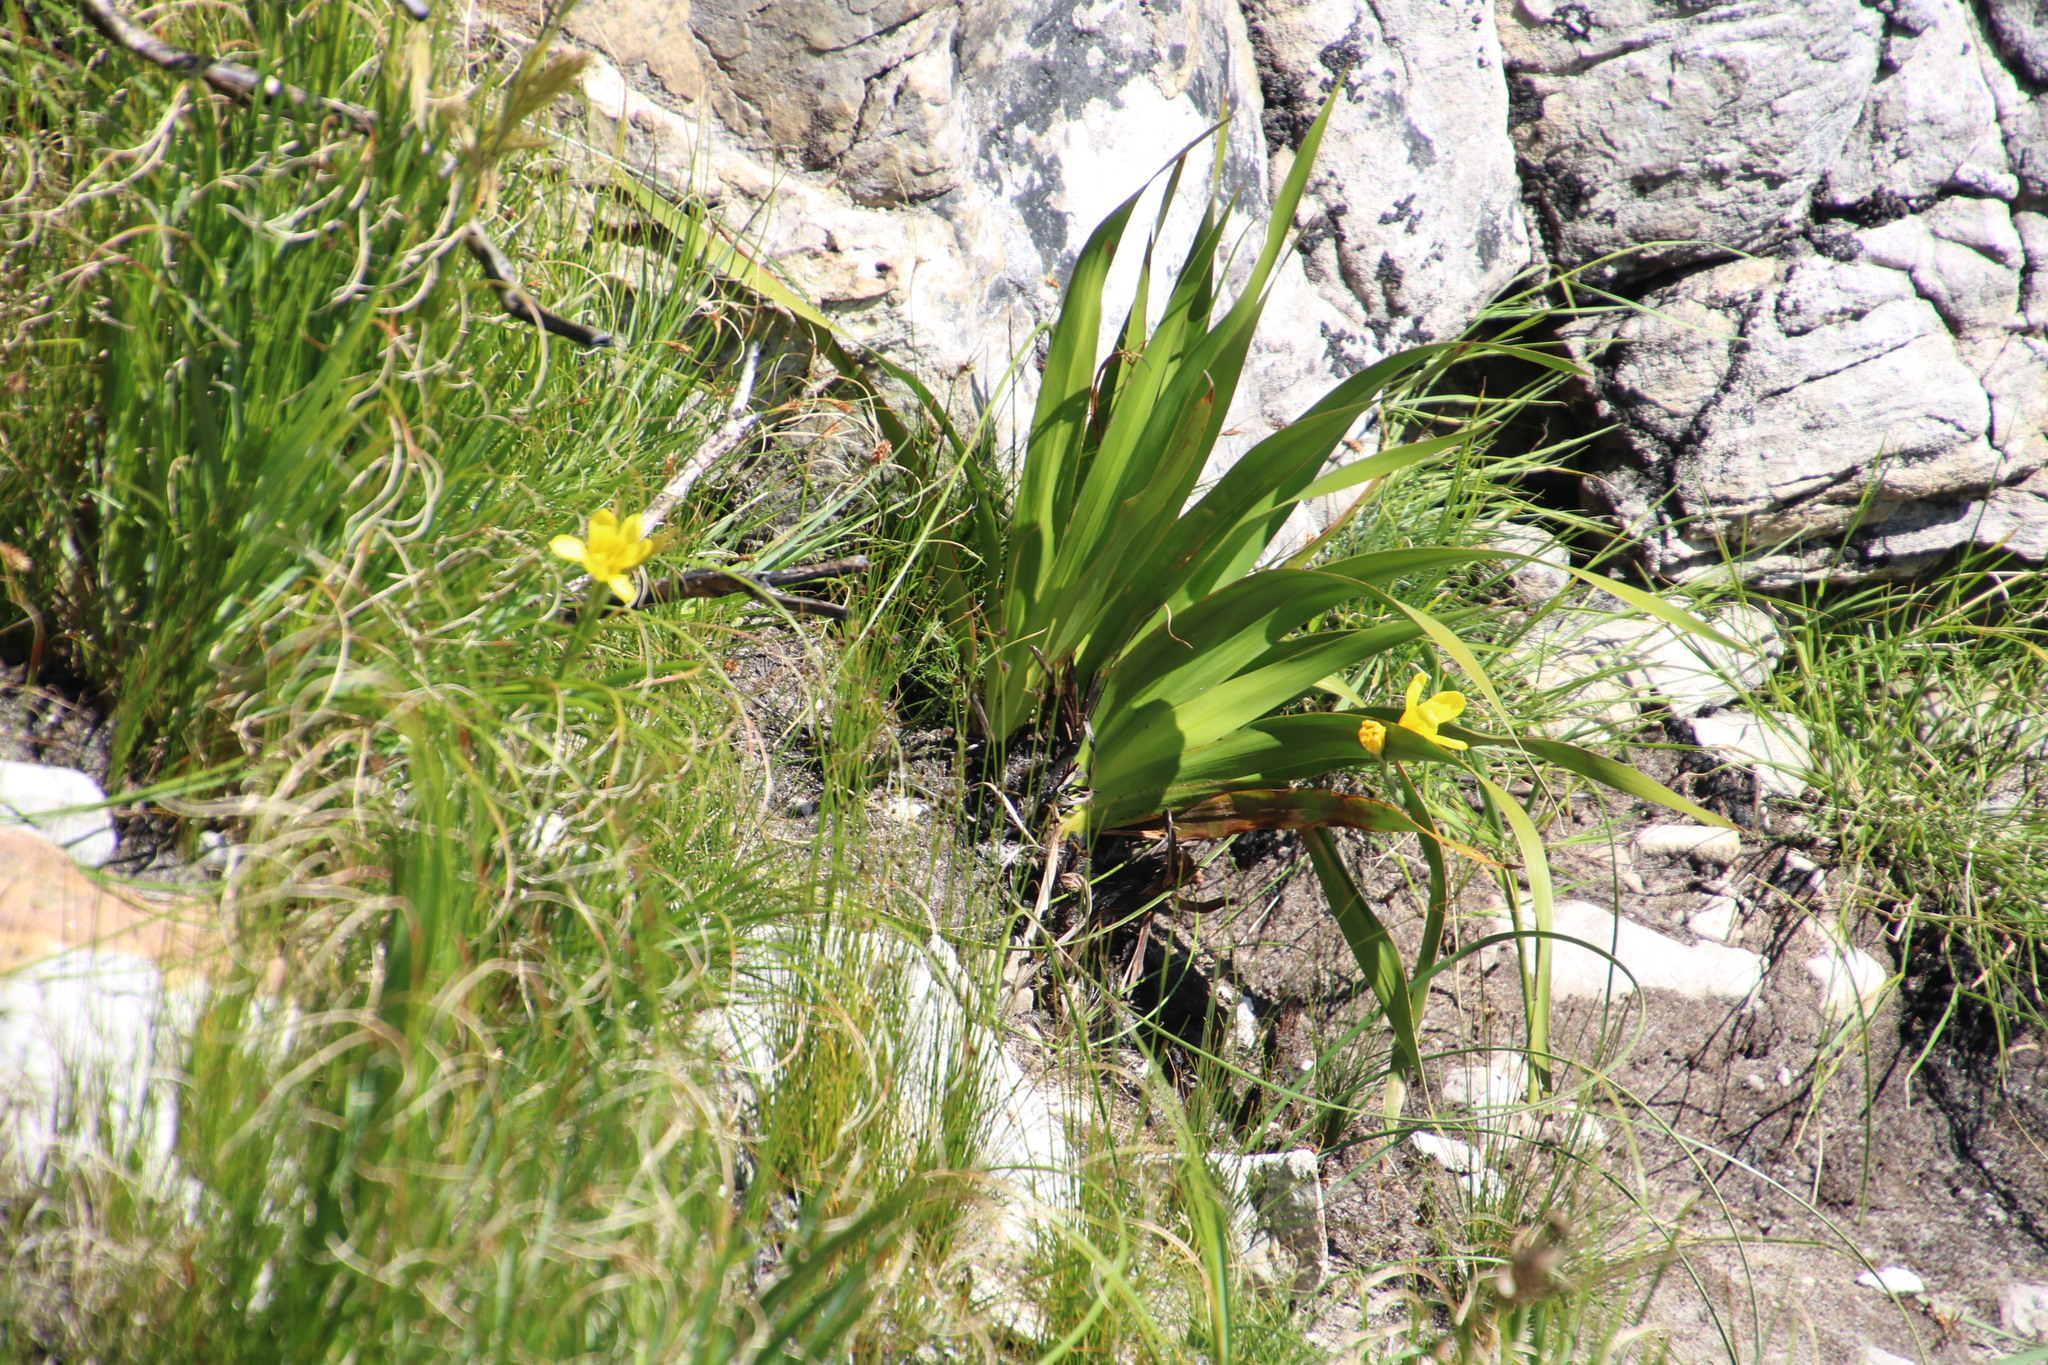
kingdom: Plantae
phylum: Tracheophyta
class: Liliopsida
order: Asparagales
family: Iridaceae
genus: Moraea
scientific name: Moraea ochroleuca
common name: Red tulp
